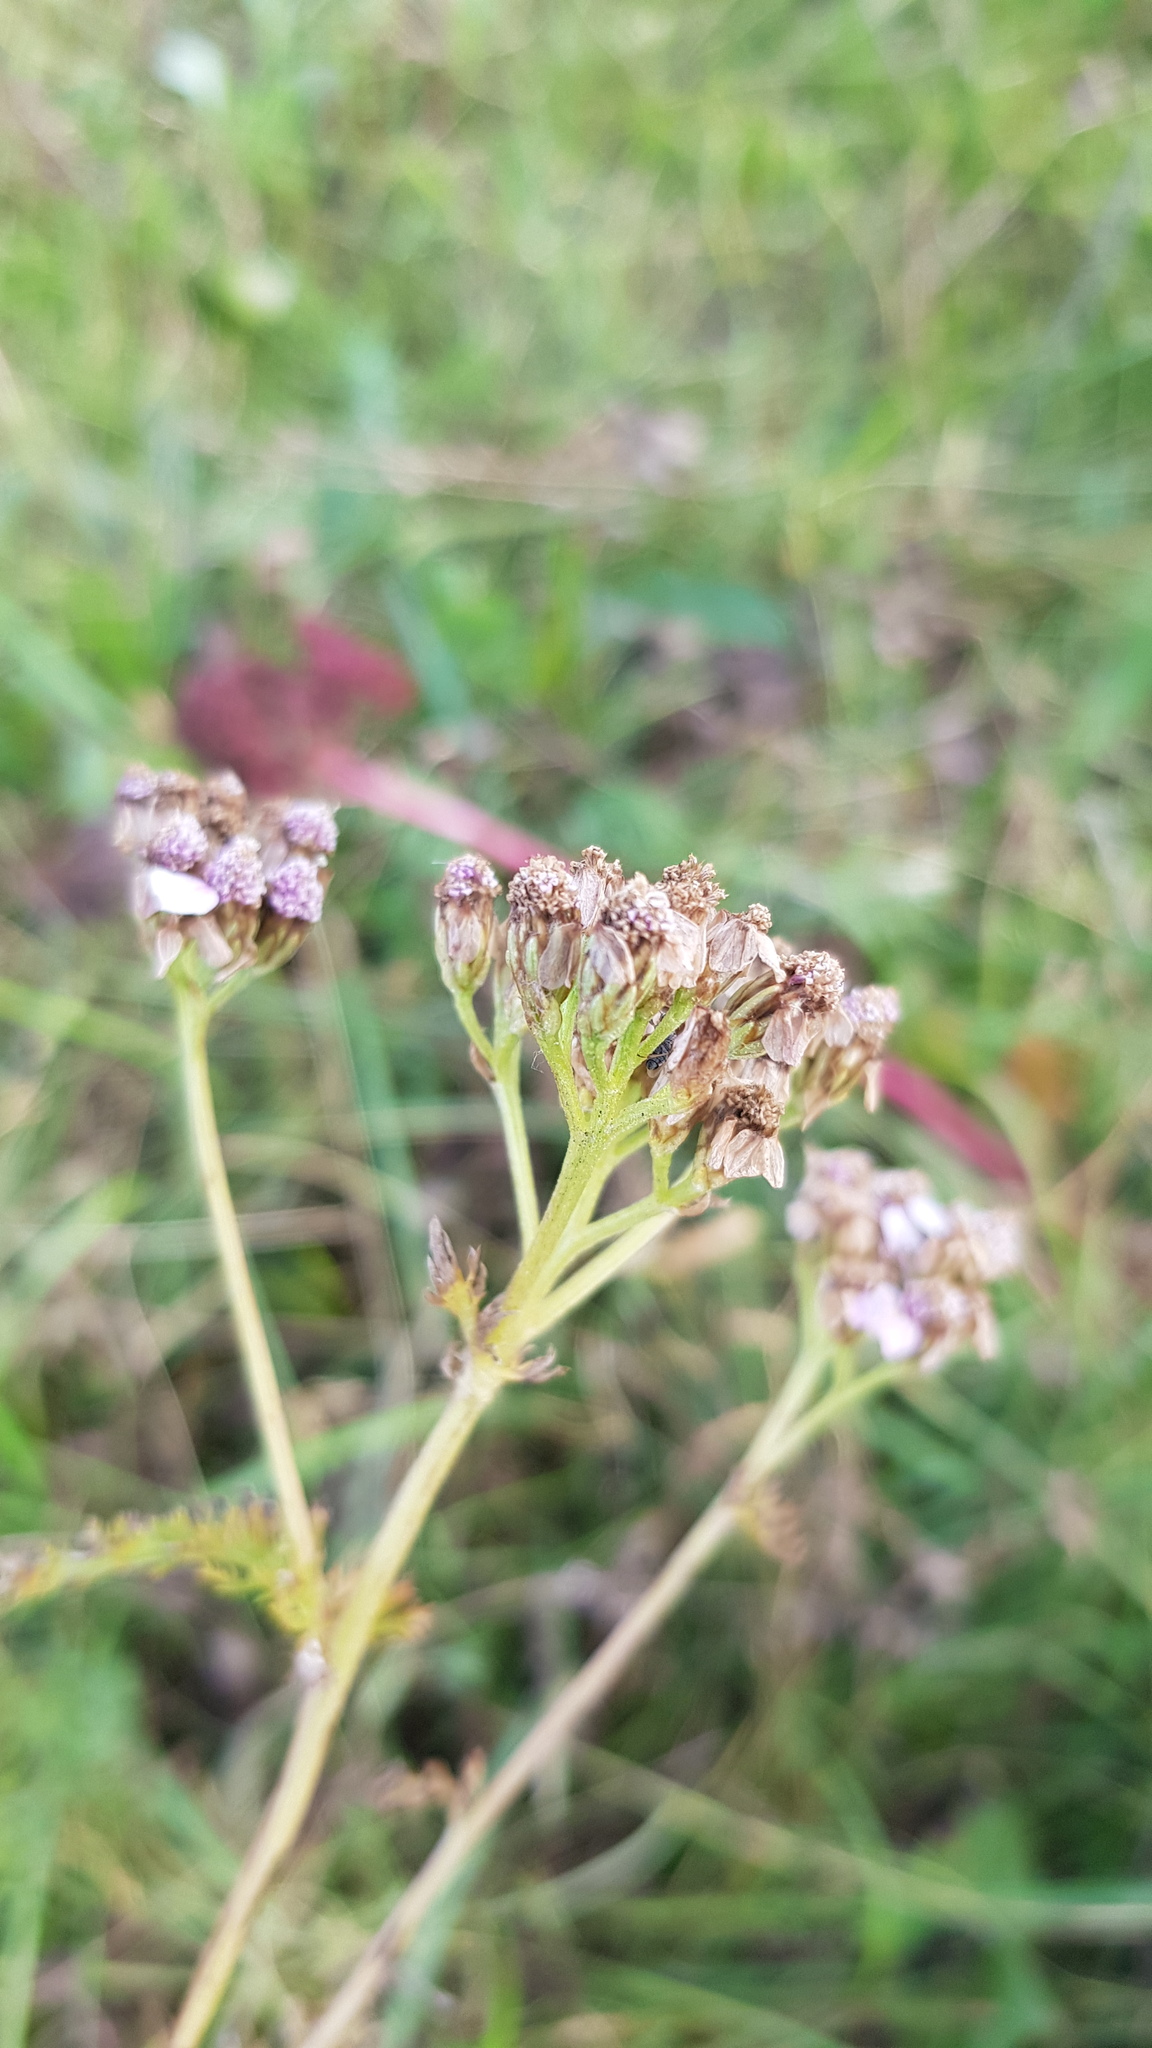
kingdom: Plantae
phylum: Tracheophyta
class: Magnoliopsida
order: Asterales
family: Asteraceae
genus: Achillea
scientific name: Achillea asiatica
